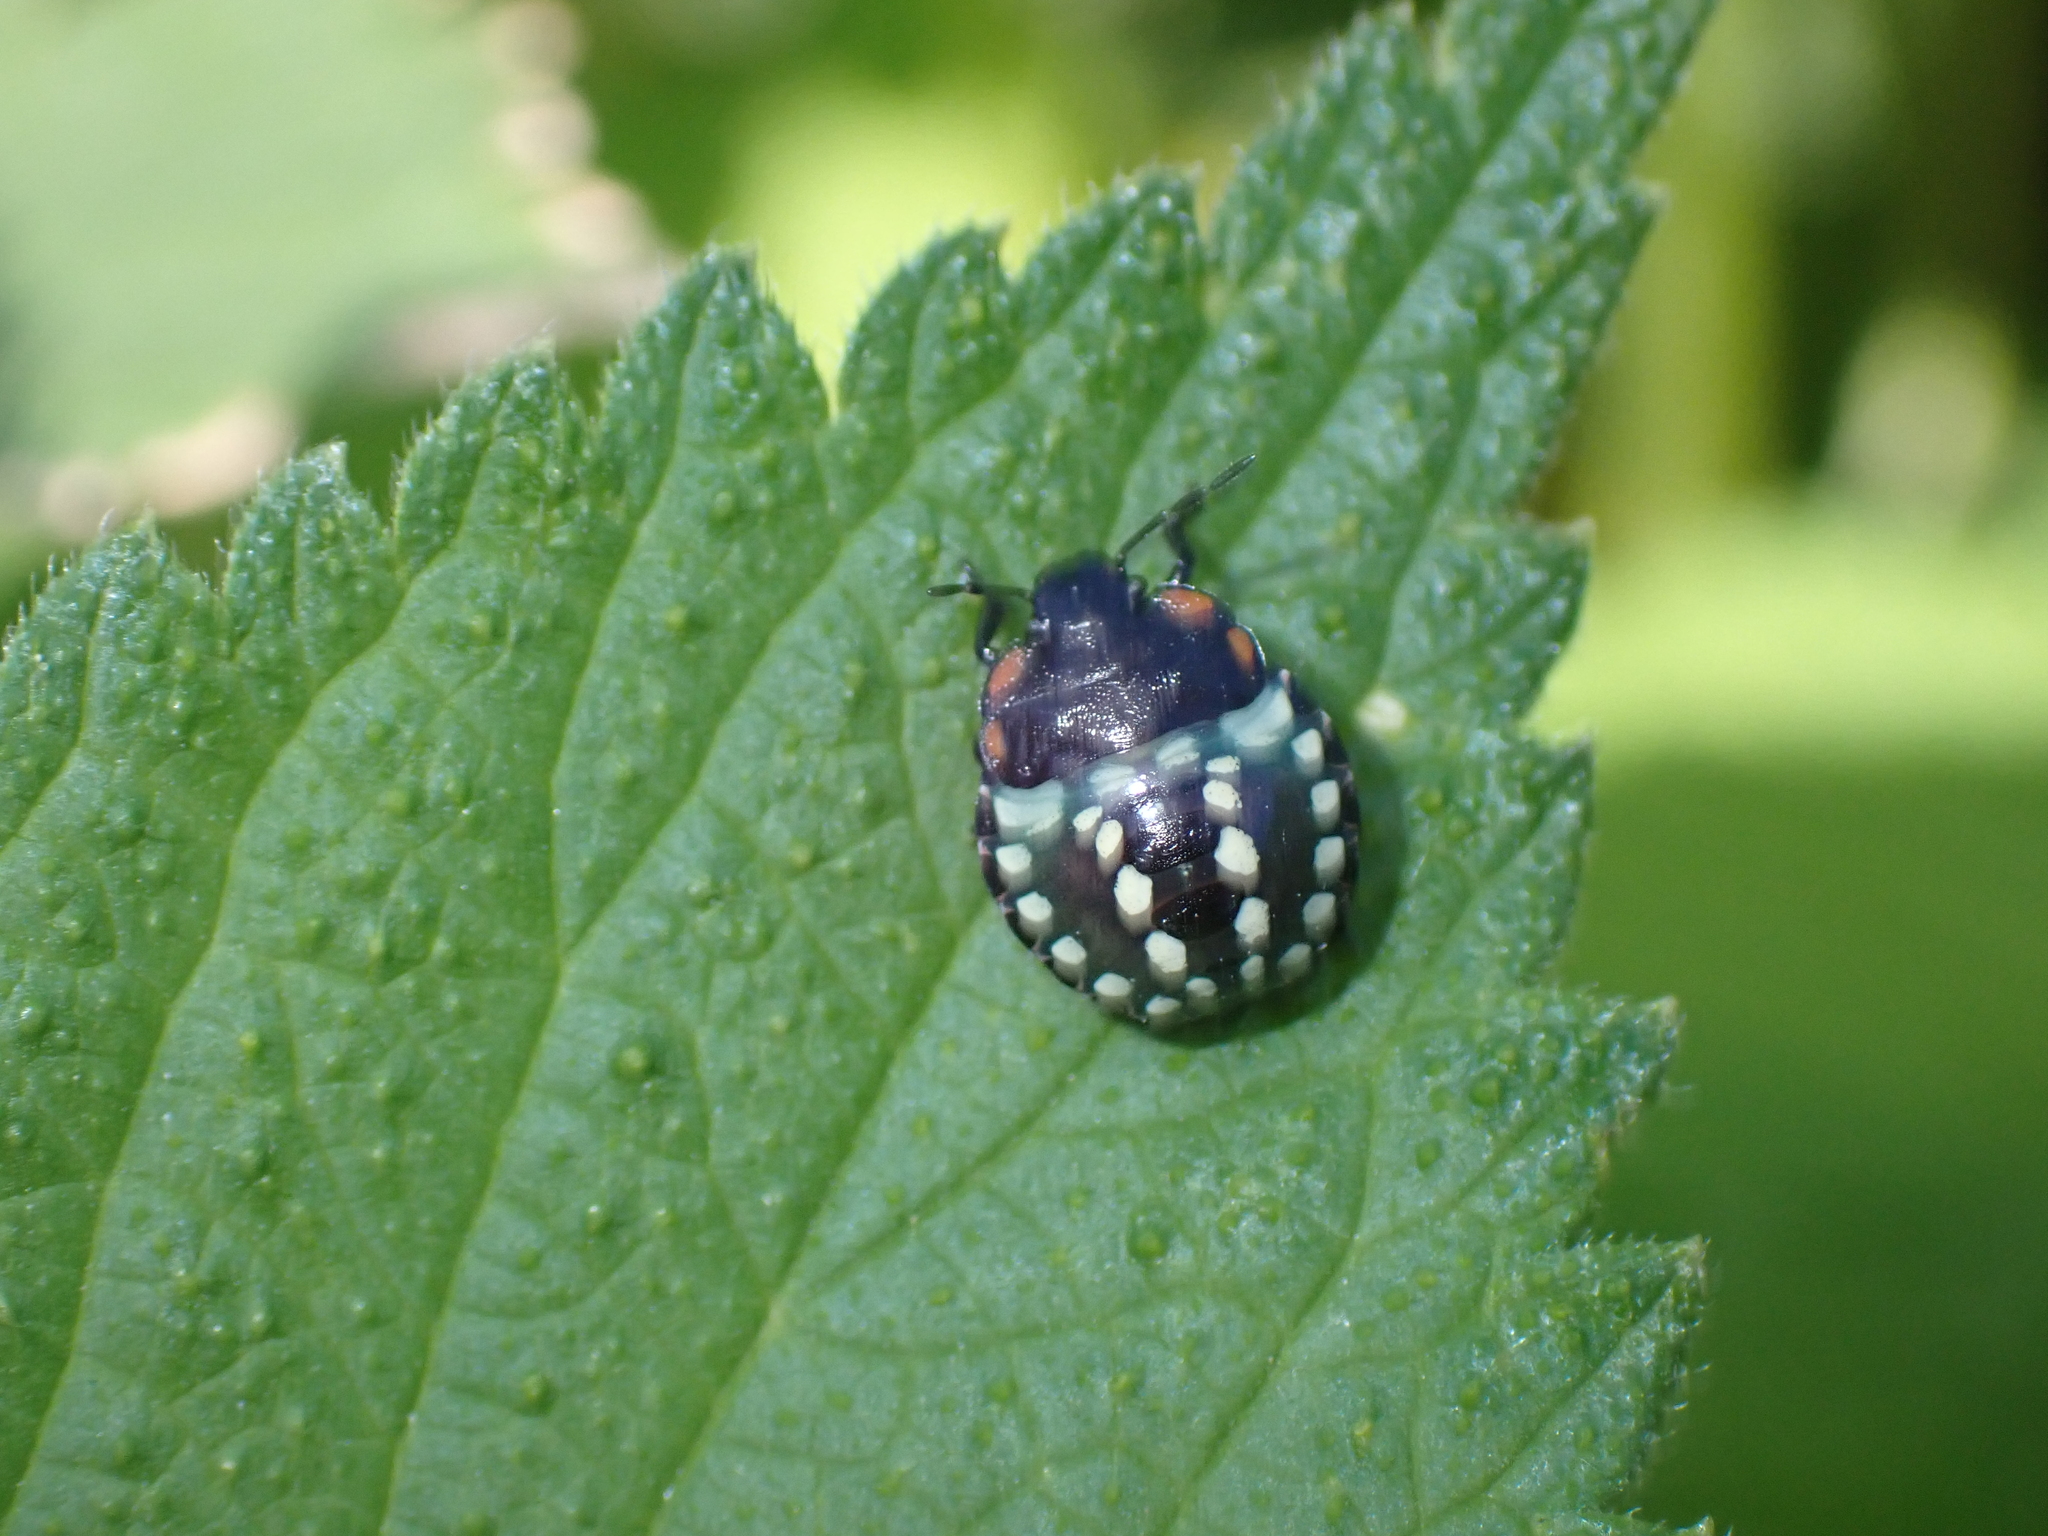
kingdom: Animalia
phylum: Arthropoda
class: Insecta
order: Hemiptera
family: Pentatomidae
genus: Nezara
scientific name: Nezara viridula
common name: Southern green stink bug
